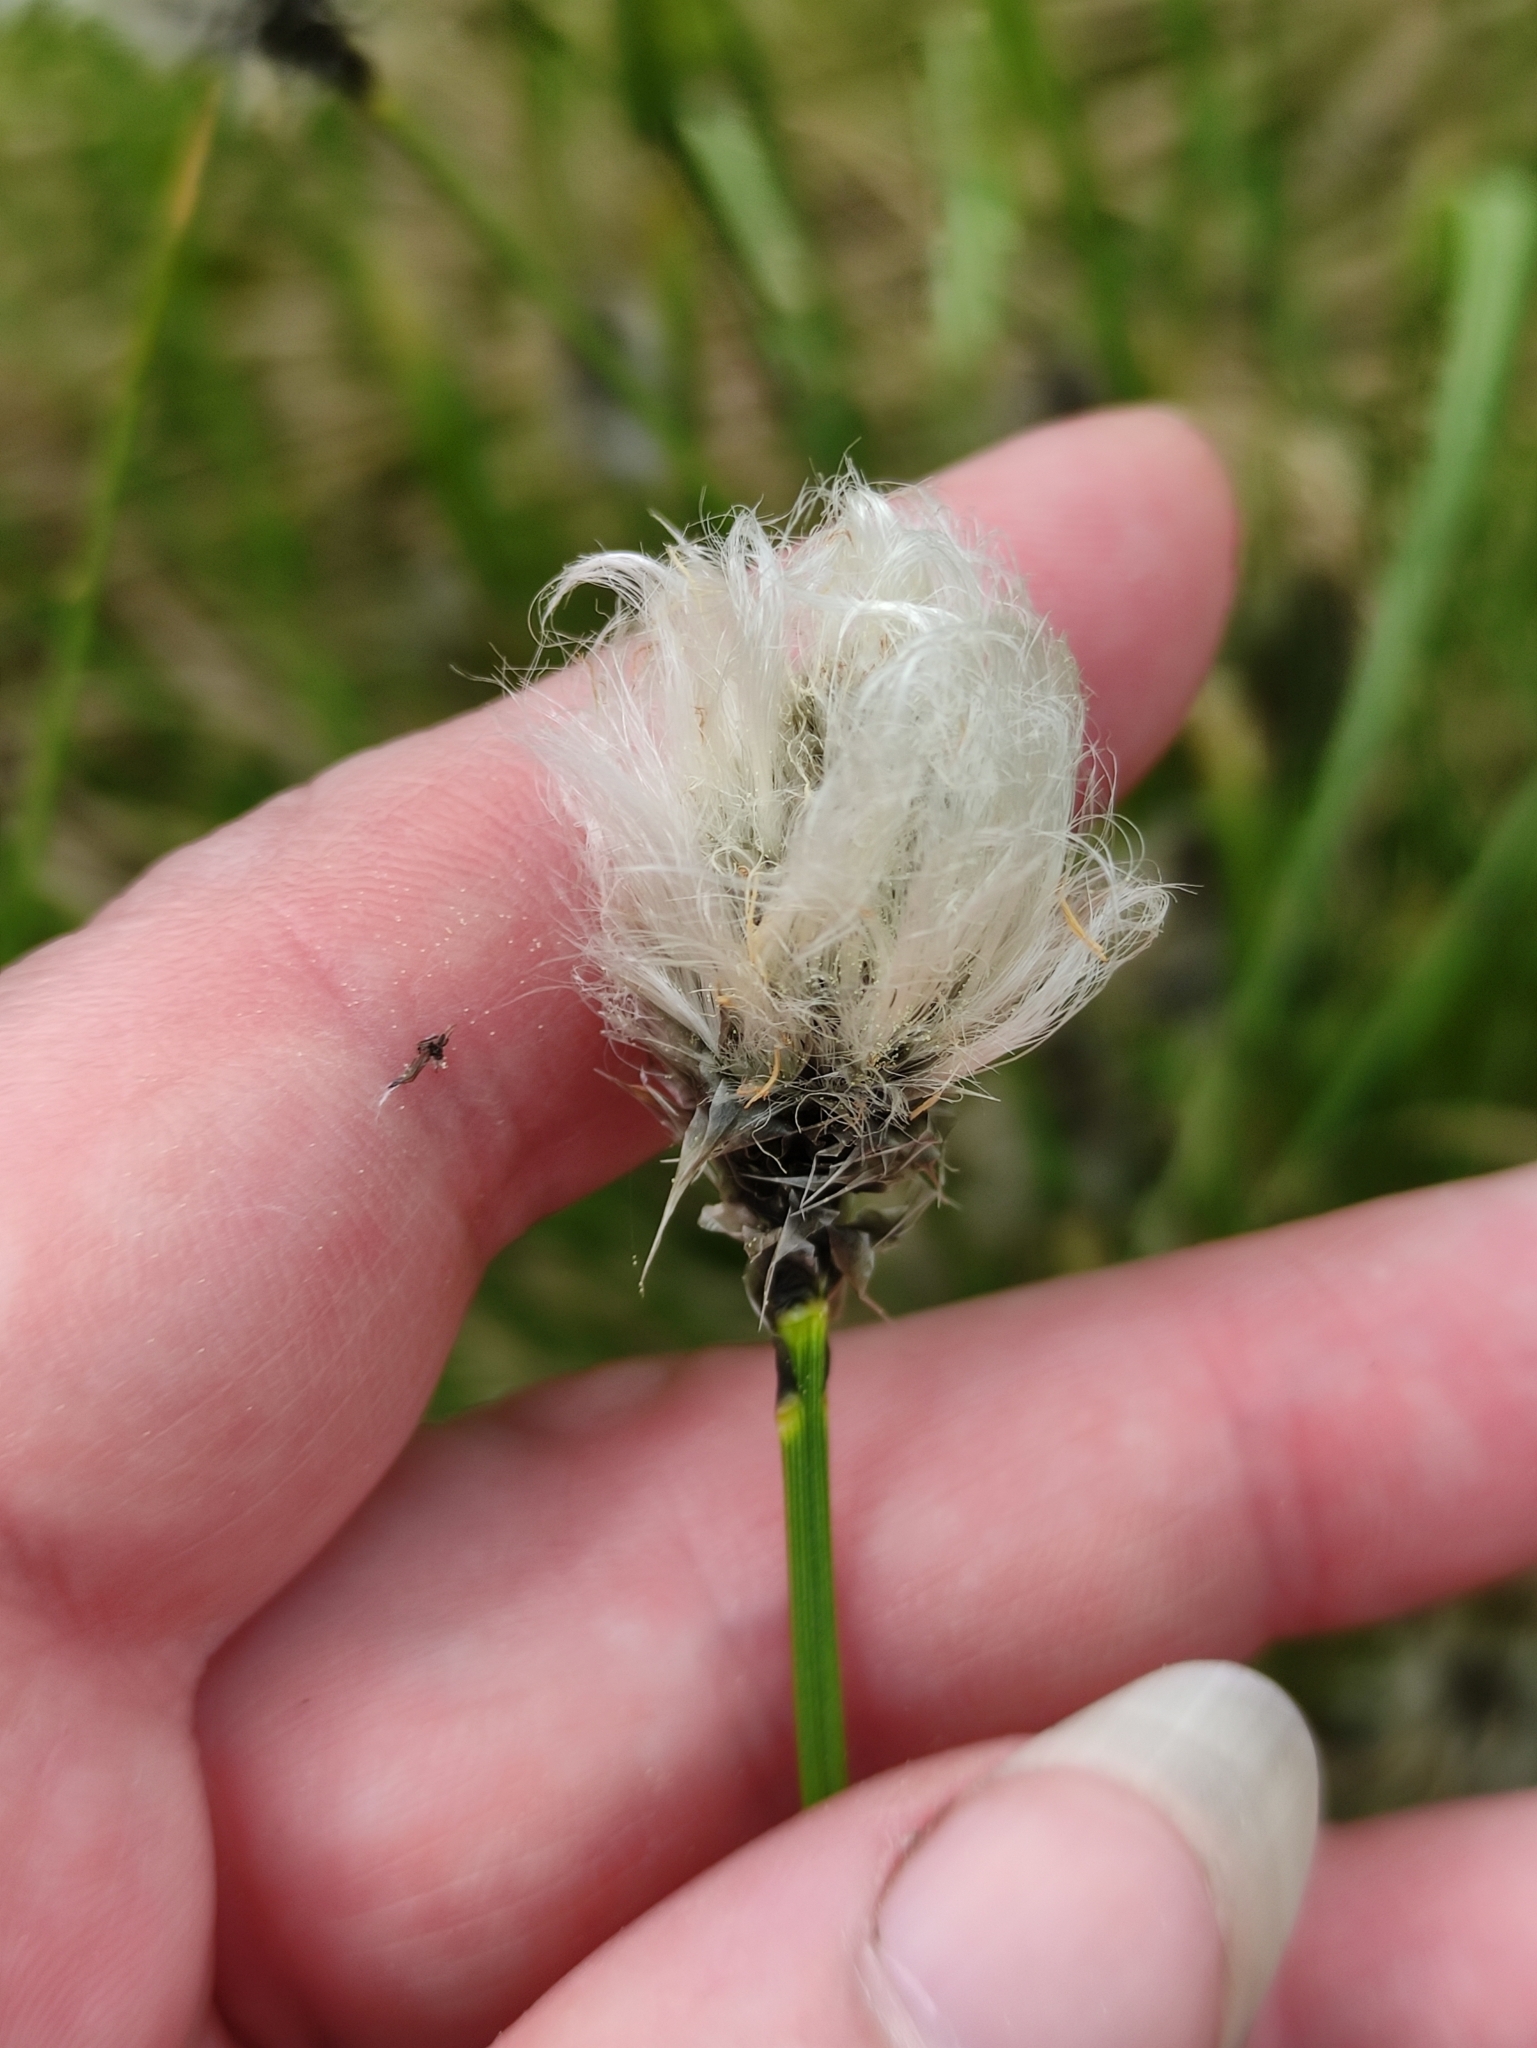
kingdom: Plantae
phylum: Tracheophyta
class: Liliopsida
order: Poales
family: Cyperaceae
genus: Eriophorum
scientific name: Eriophorum vaginatum
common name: Hare's-tail cottongrass
